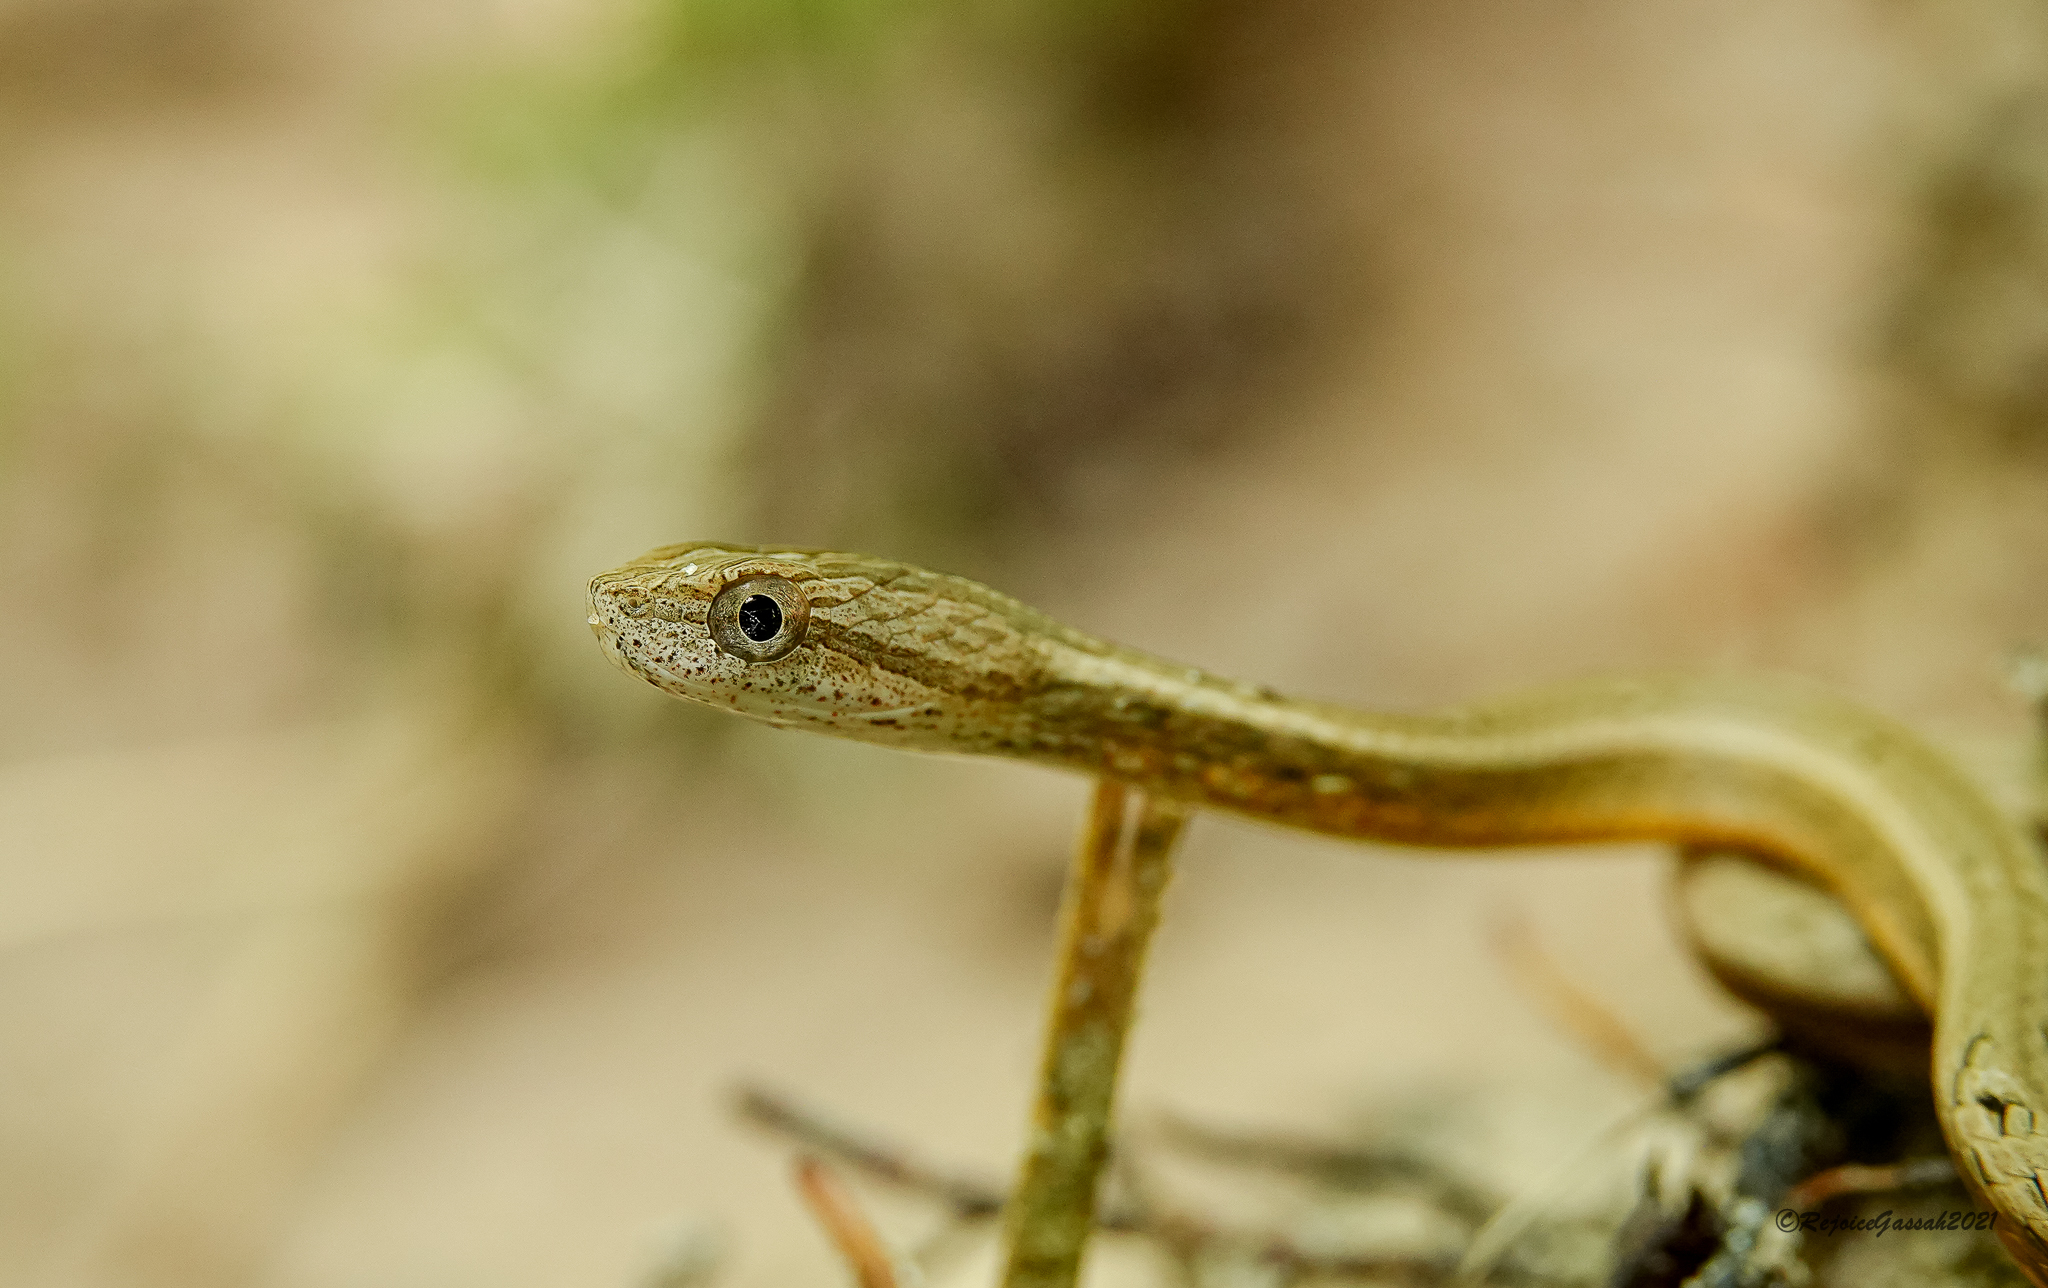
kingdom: Animalia
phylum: Chordata
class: Squamata
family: Pseudaspididae
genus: Psammodynastes
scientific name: Psammodynastes pulverulentus
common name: Common mock viper
